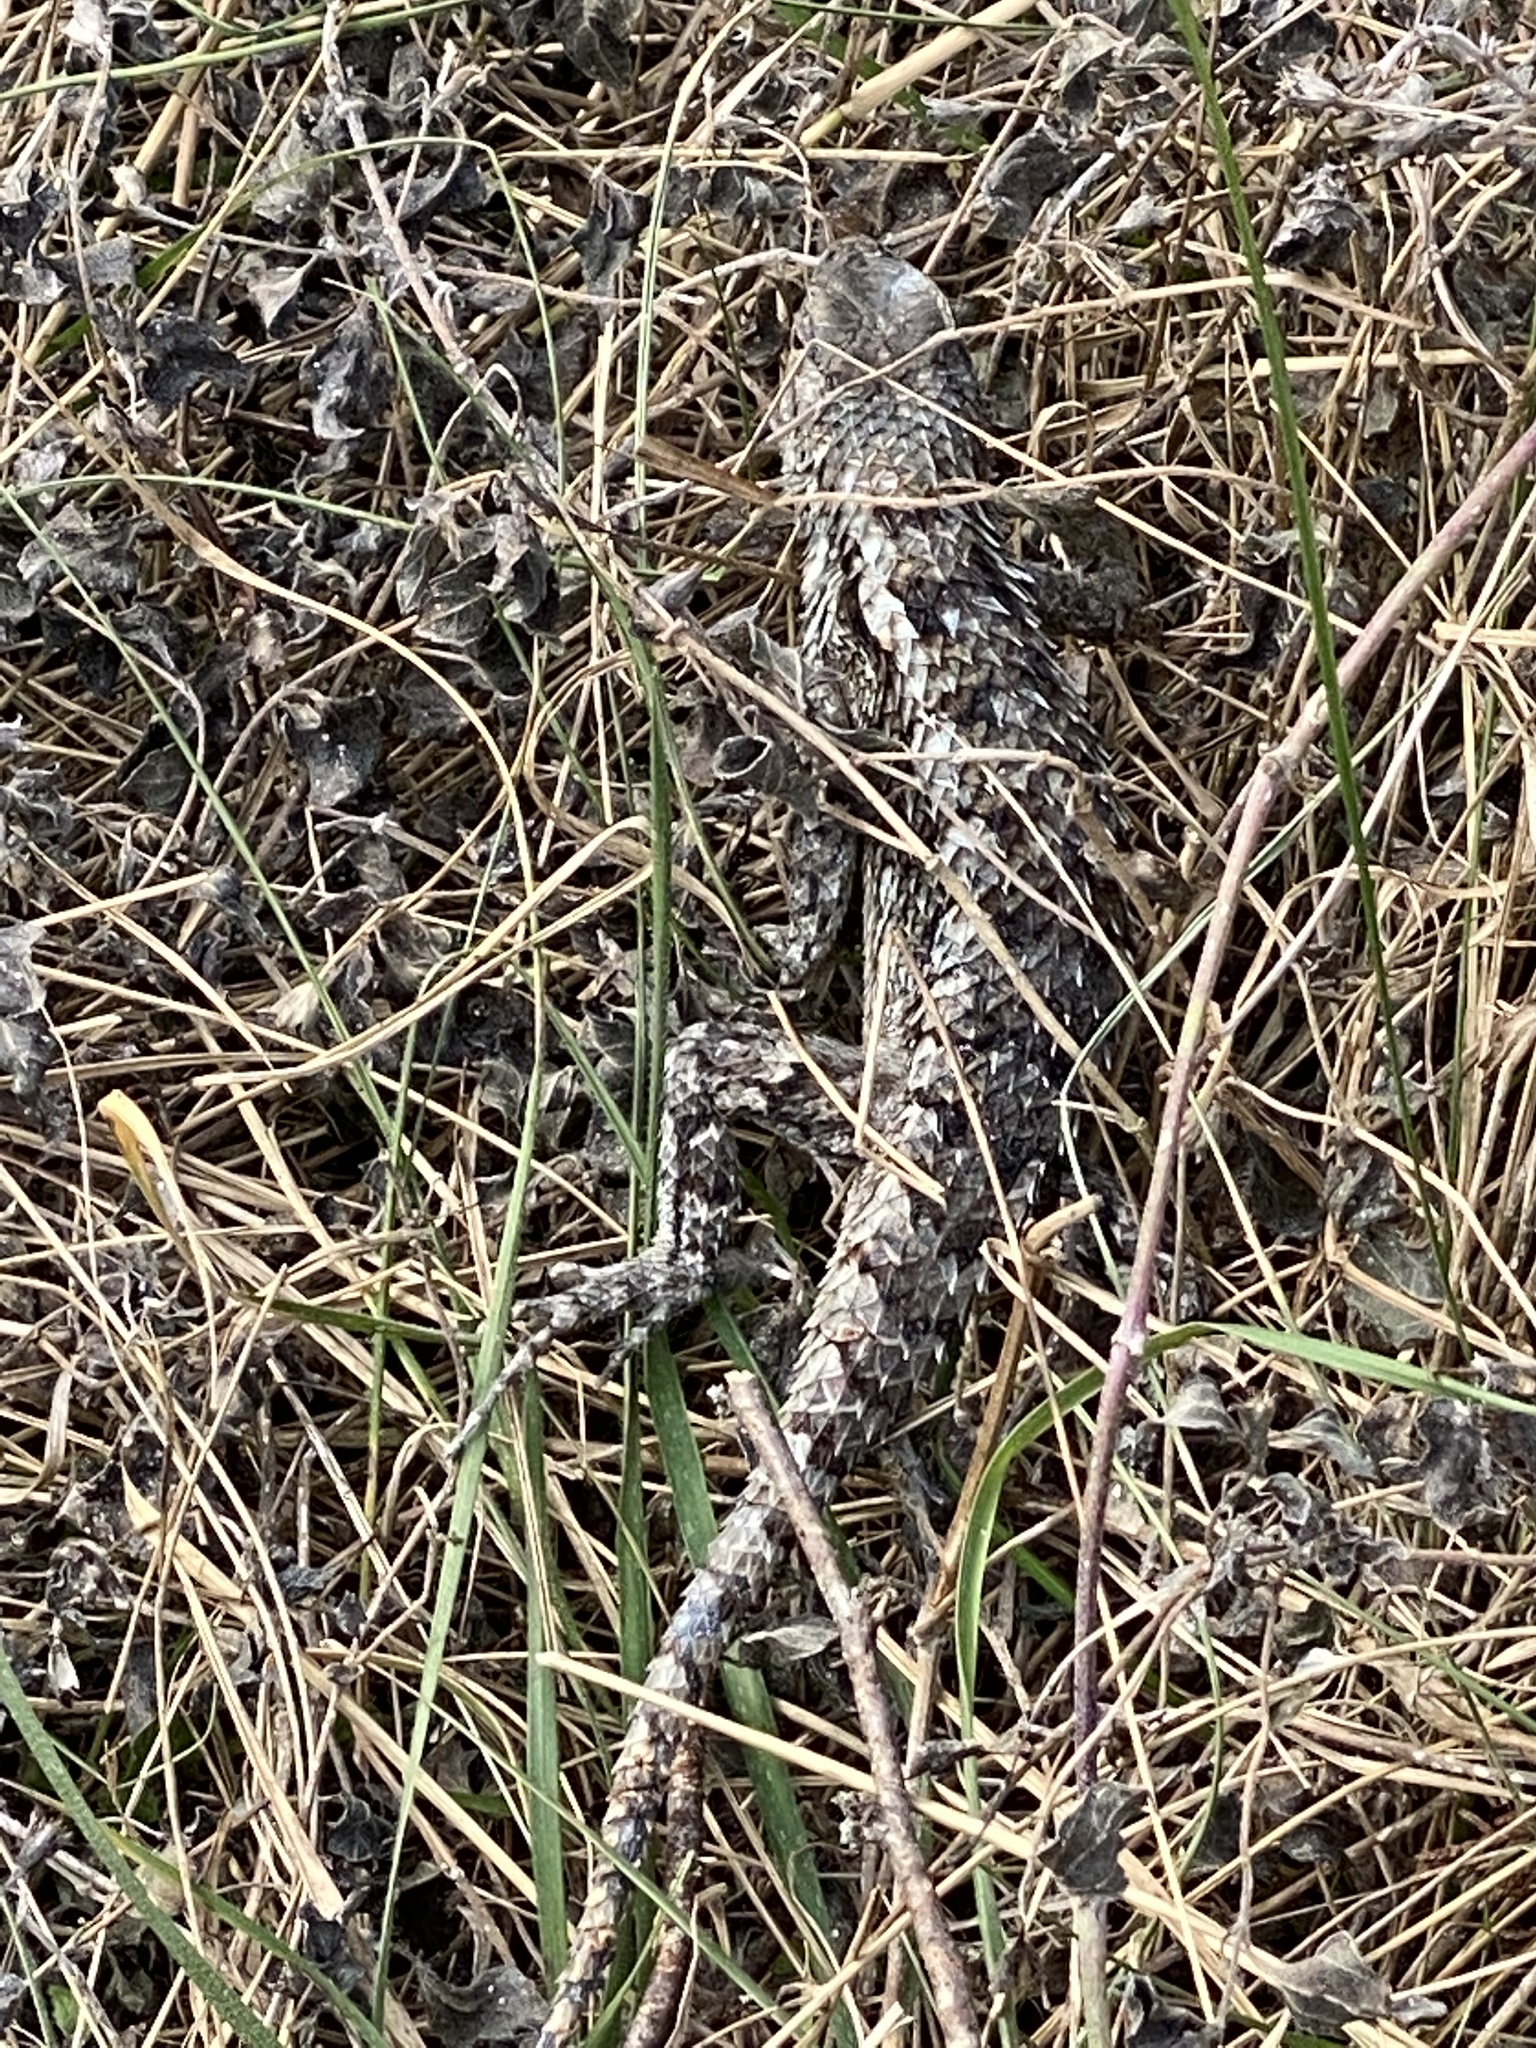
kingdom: Animalia
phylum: Chordata
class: Squamata
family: Phrynosomatidae
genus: Sceloporus
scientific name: Sceloporus olivaceus
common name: Texas spiny lizard
